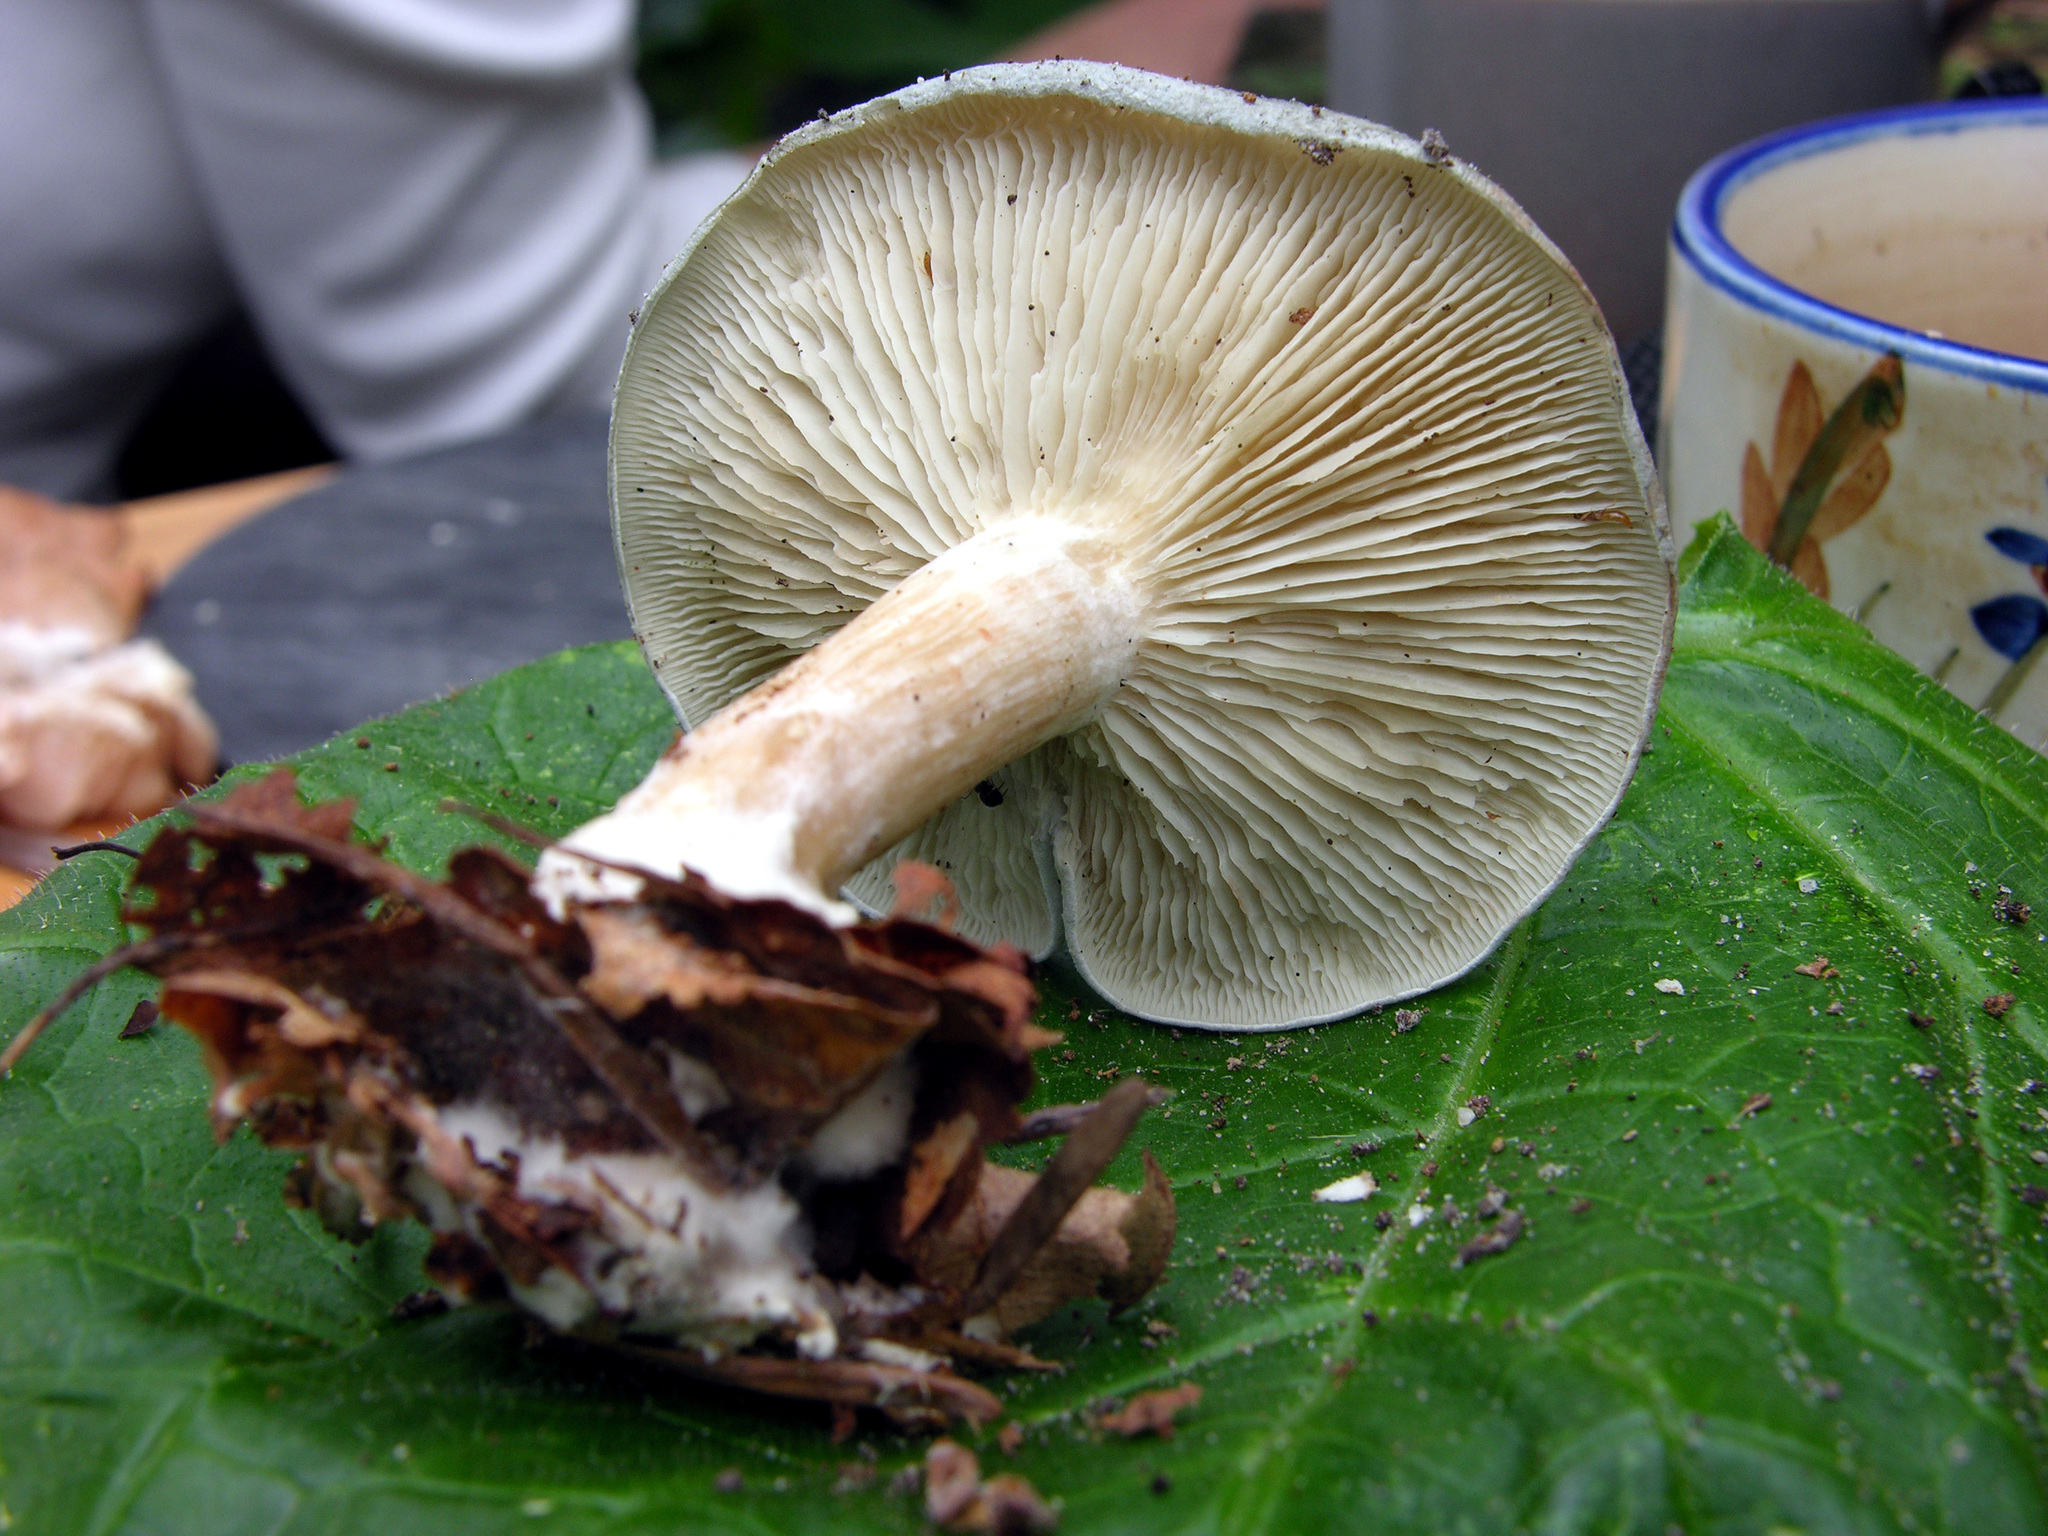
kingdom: Fungi
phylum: Basidiomycota
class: Agaricomycetes
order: Agaricales
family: Tricholomataceae
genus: Collybia
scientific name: Collybia
